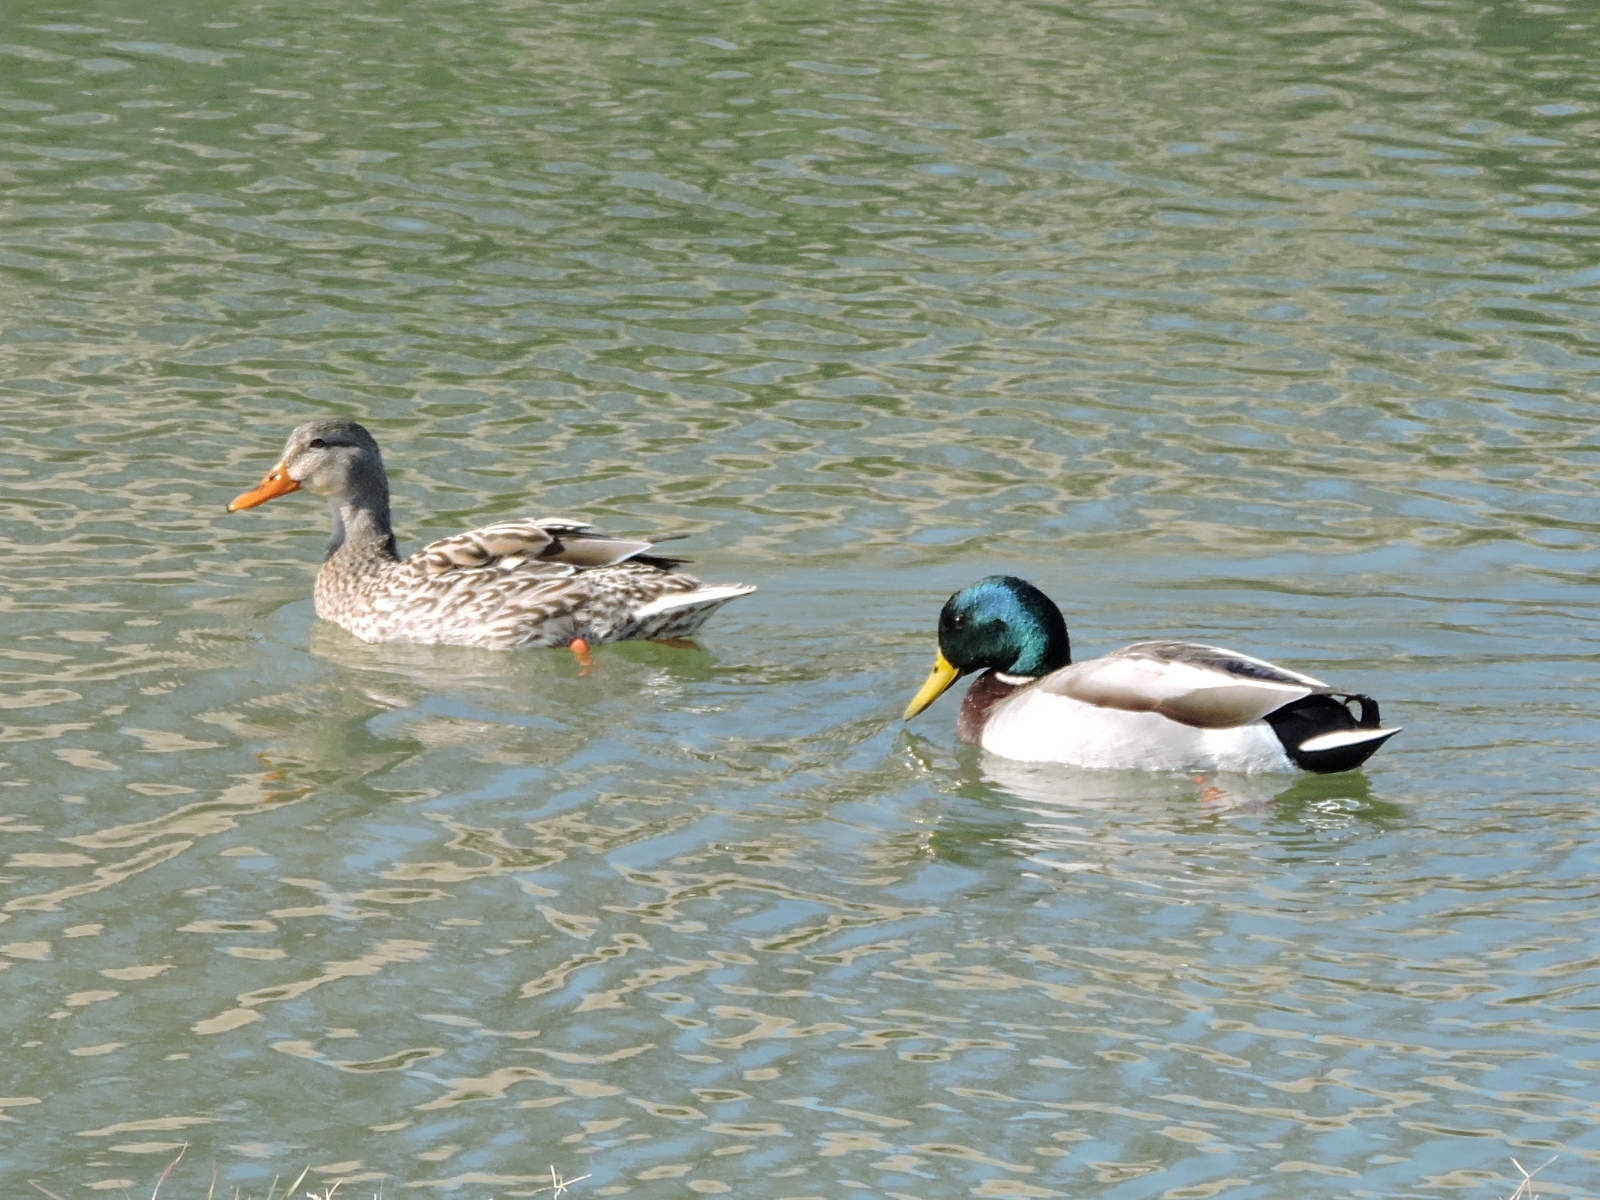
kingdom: Animalia
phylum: Chordata
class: Aves
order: Anseriformes
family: Anatidae
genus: Anas
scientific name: Anas platyrhynchos
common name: Mallard
